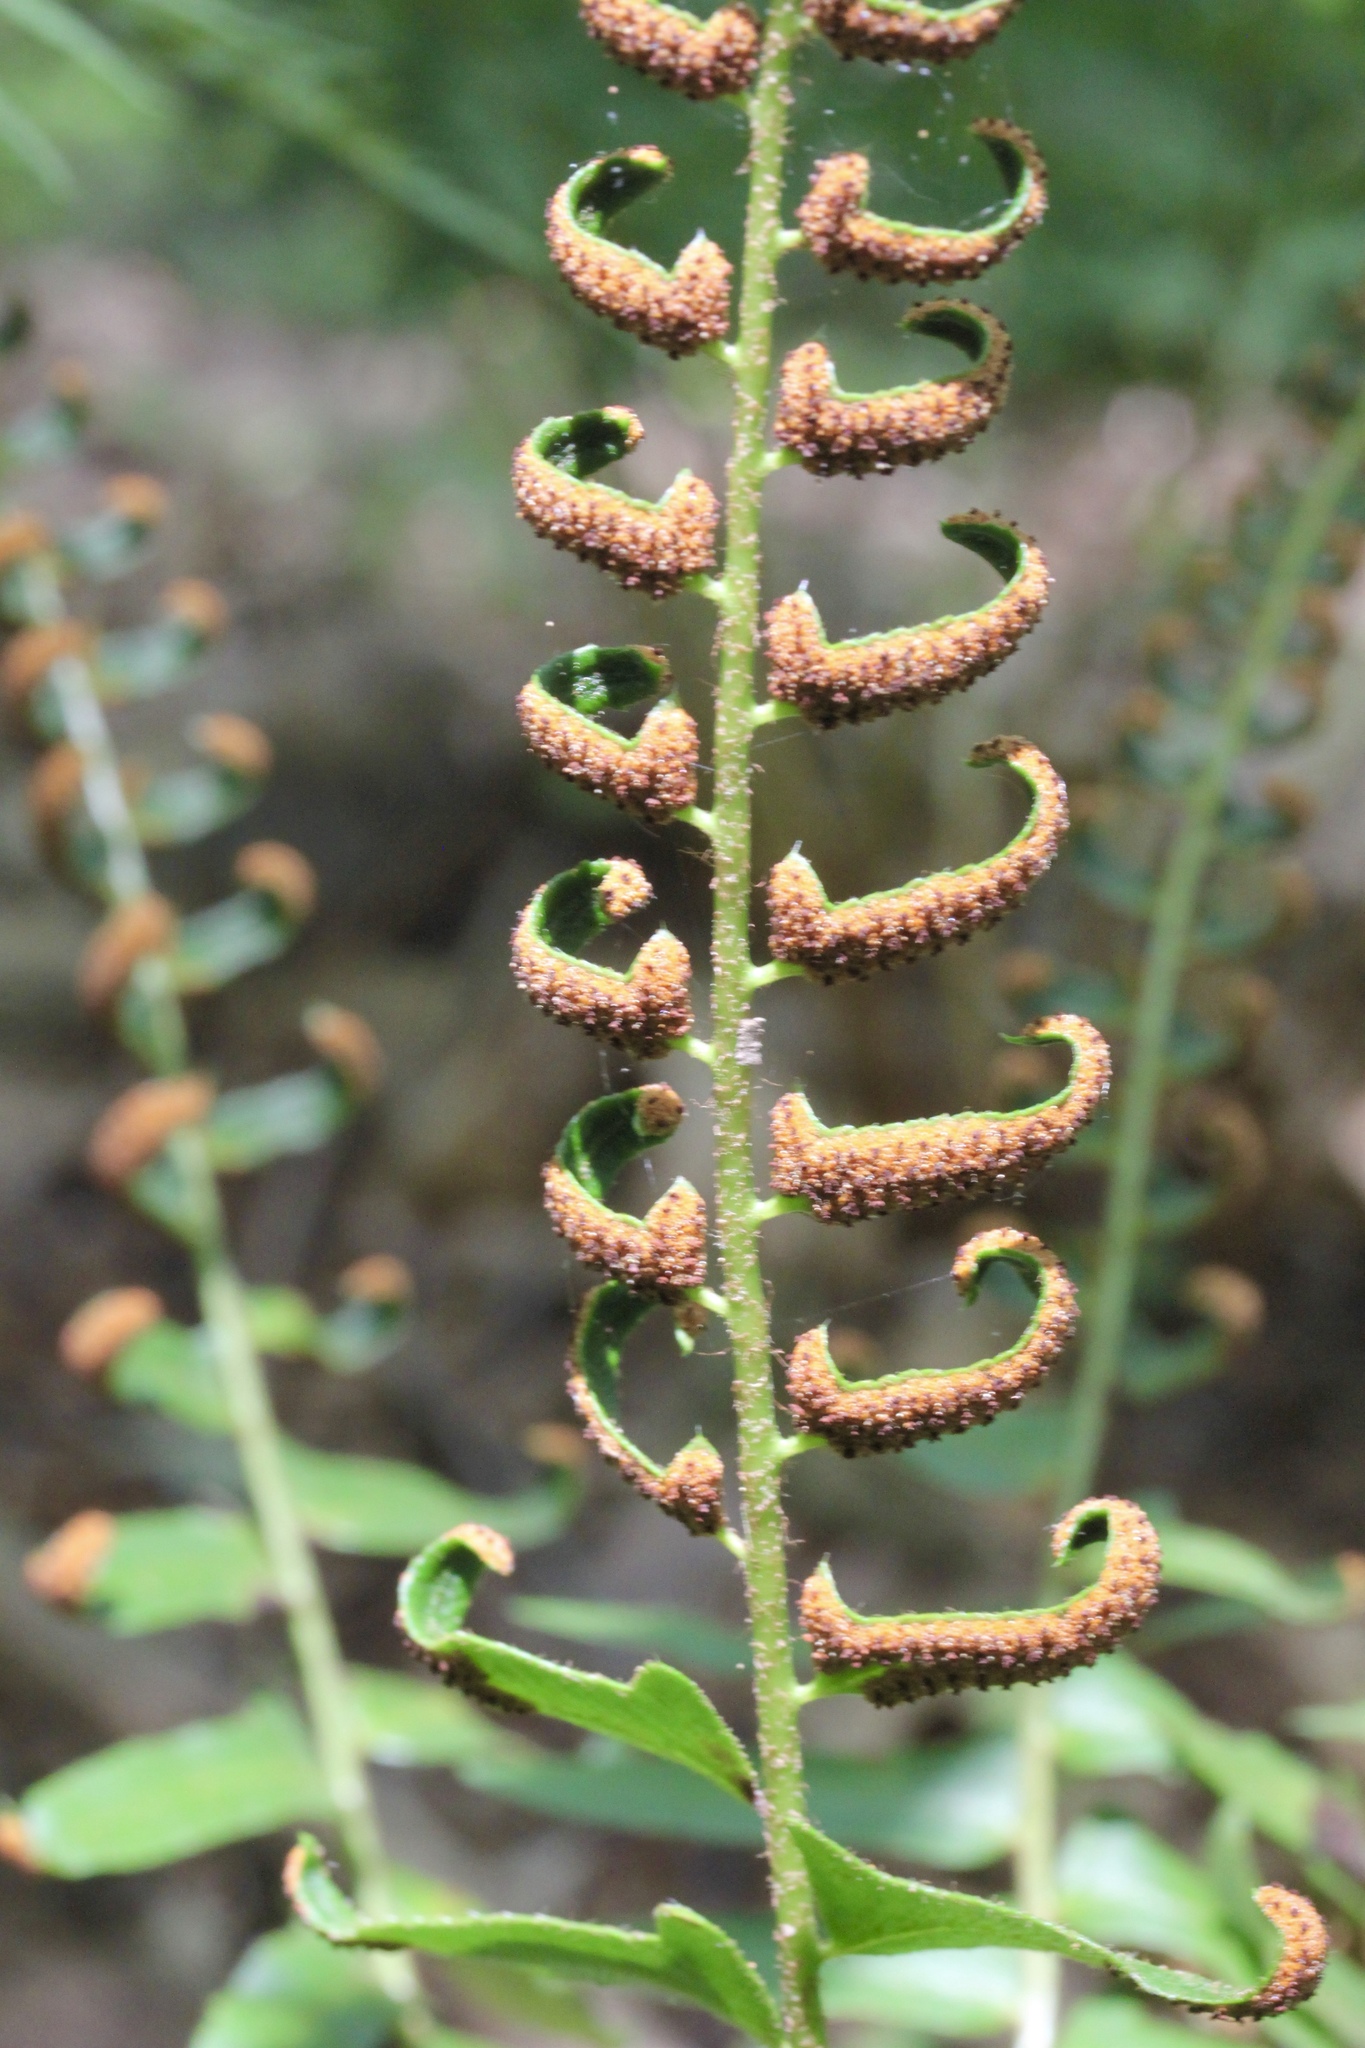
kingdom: Plantae
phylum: Tracheophyta
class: Polypodiopsida
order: Polypodiales
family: Dryopteridaceae
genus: Polystichum
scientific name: Polystichum acrostichoides
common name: Christmas fern
